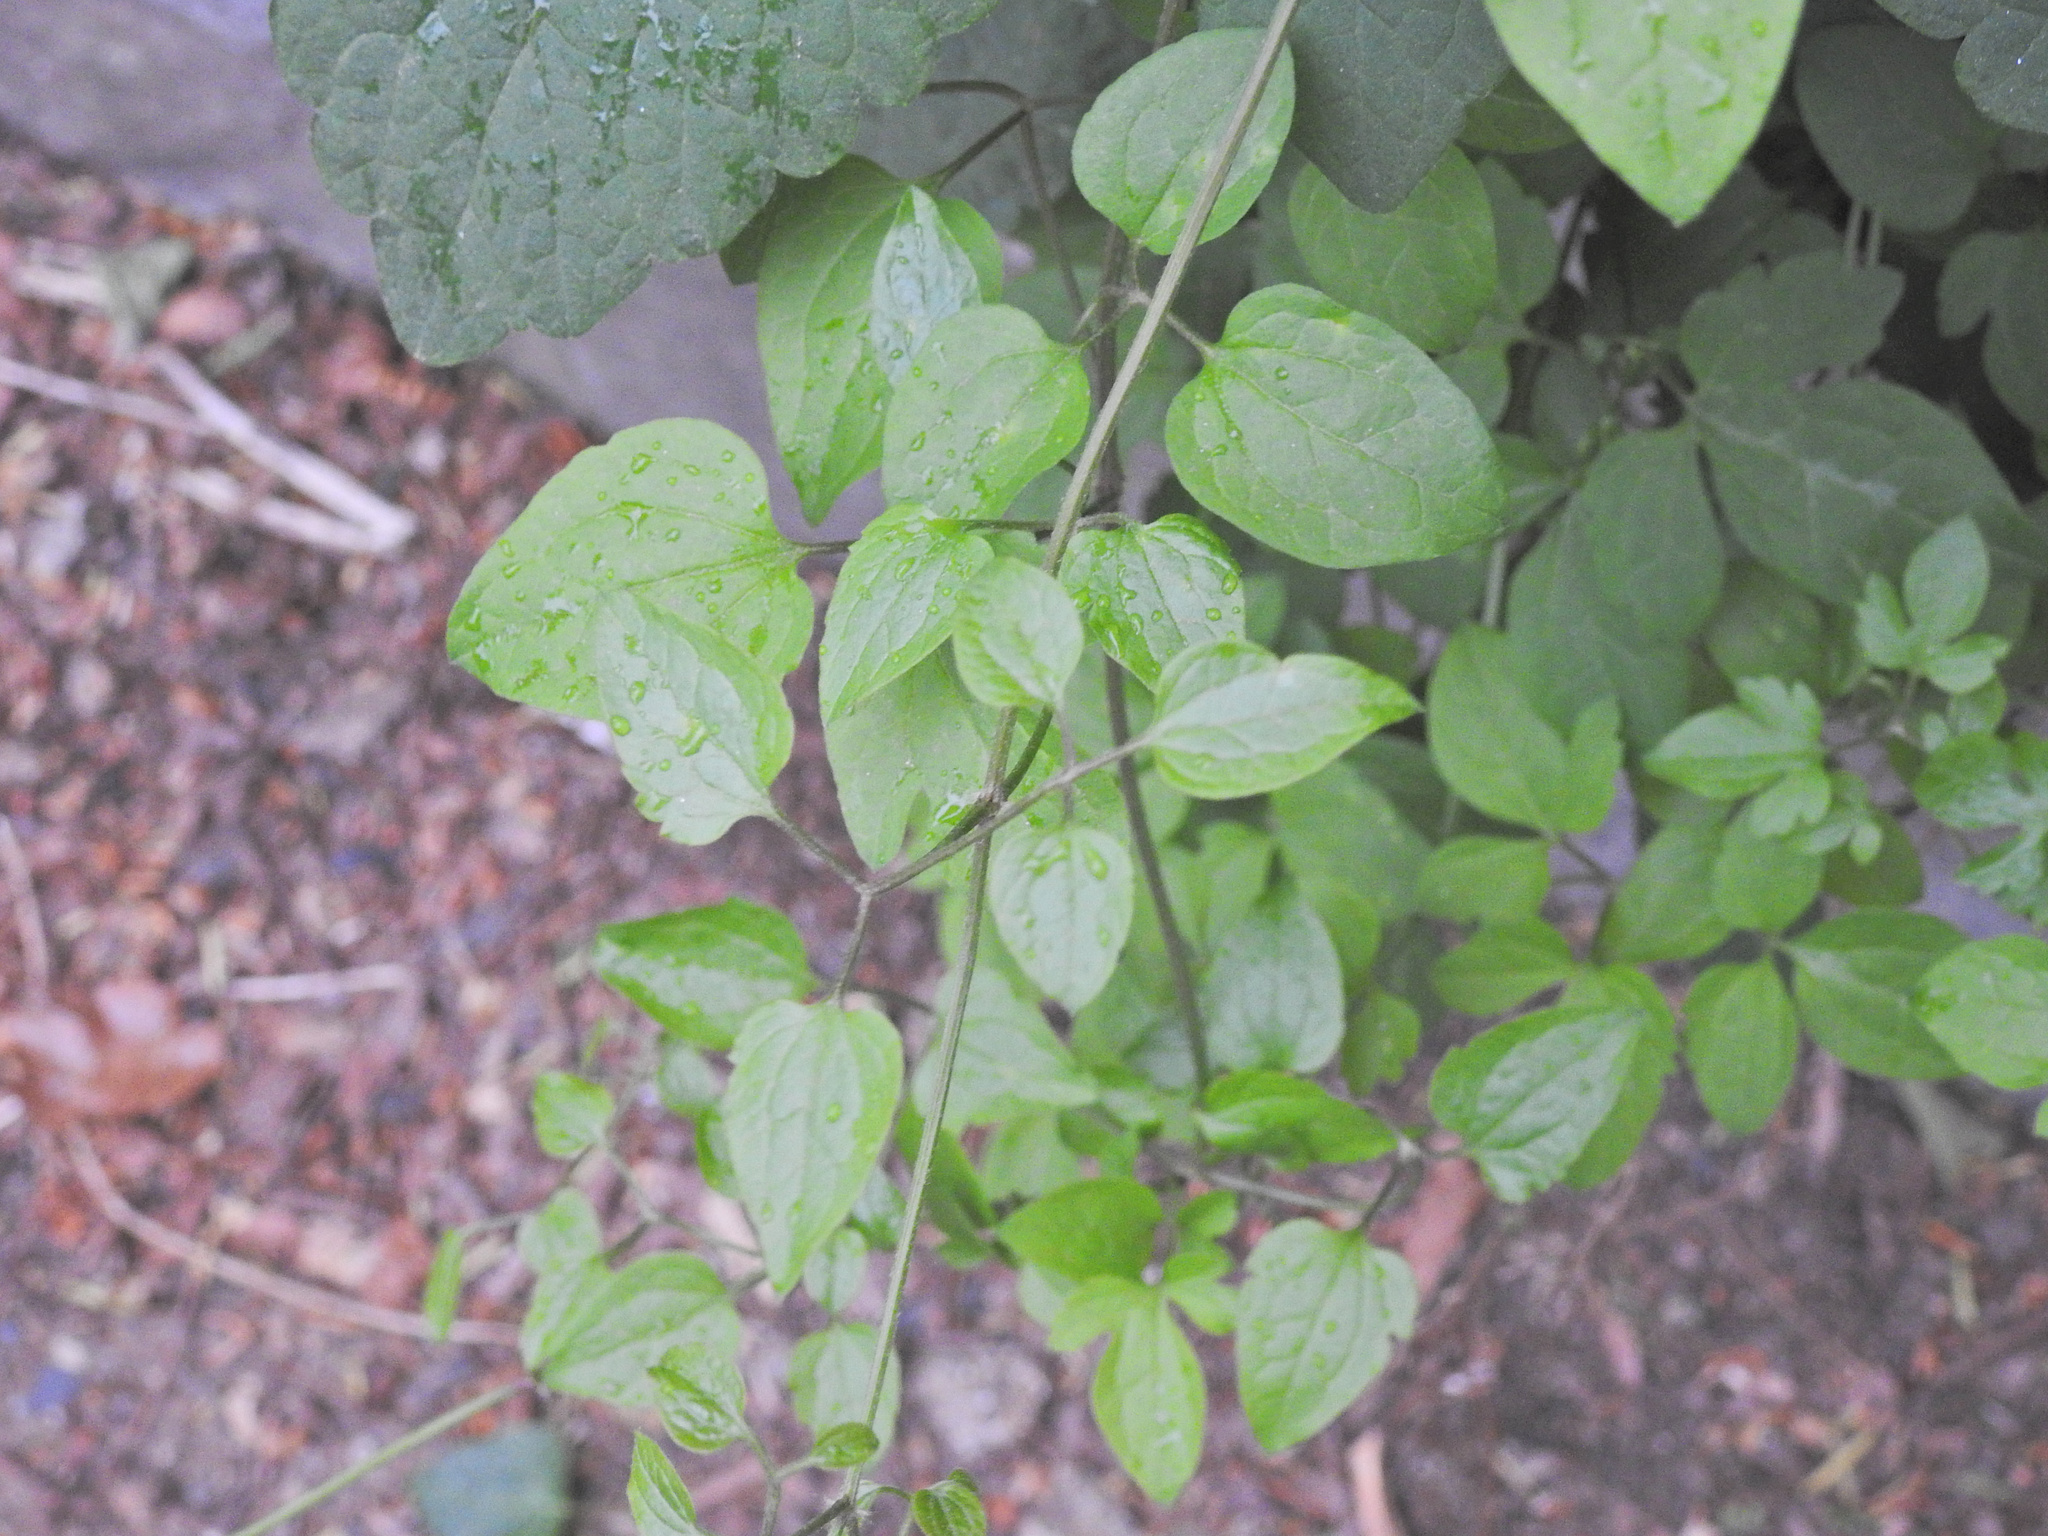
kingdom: Plantae
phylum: Tracheophyta
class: Magnoliopsida
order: Ranunculales
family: Ranunculaceae
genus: Clematis
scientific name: Clematis terniflora
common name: Sweet autumn clematis
